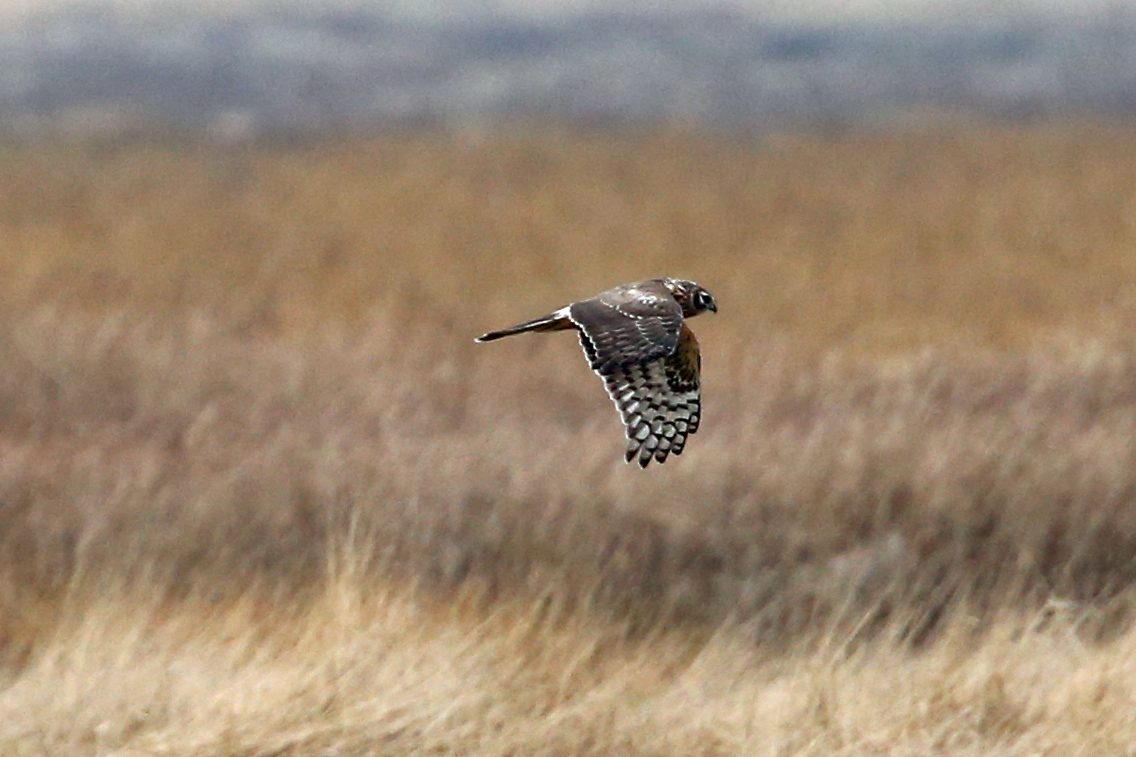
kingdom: Animalia
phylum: Chordata
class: Aves
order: Accipitriformes
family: Accipitridae
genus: Circus
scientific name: Circus cyaneus
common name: Hen harrier
